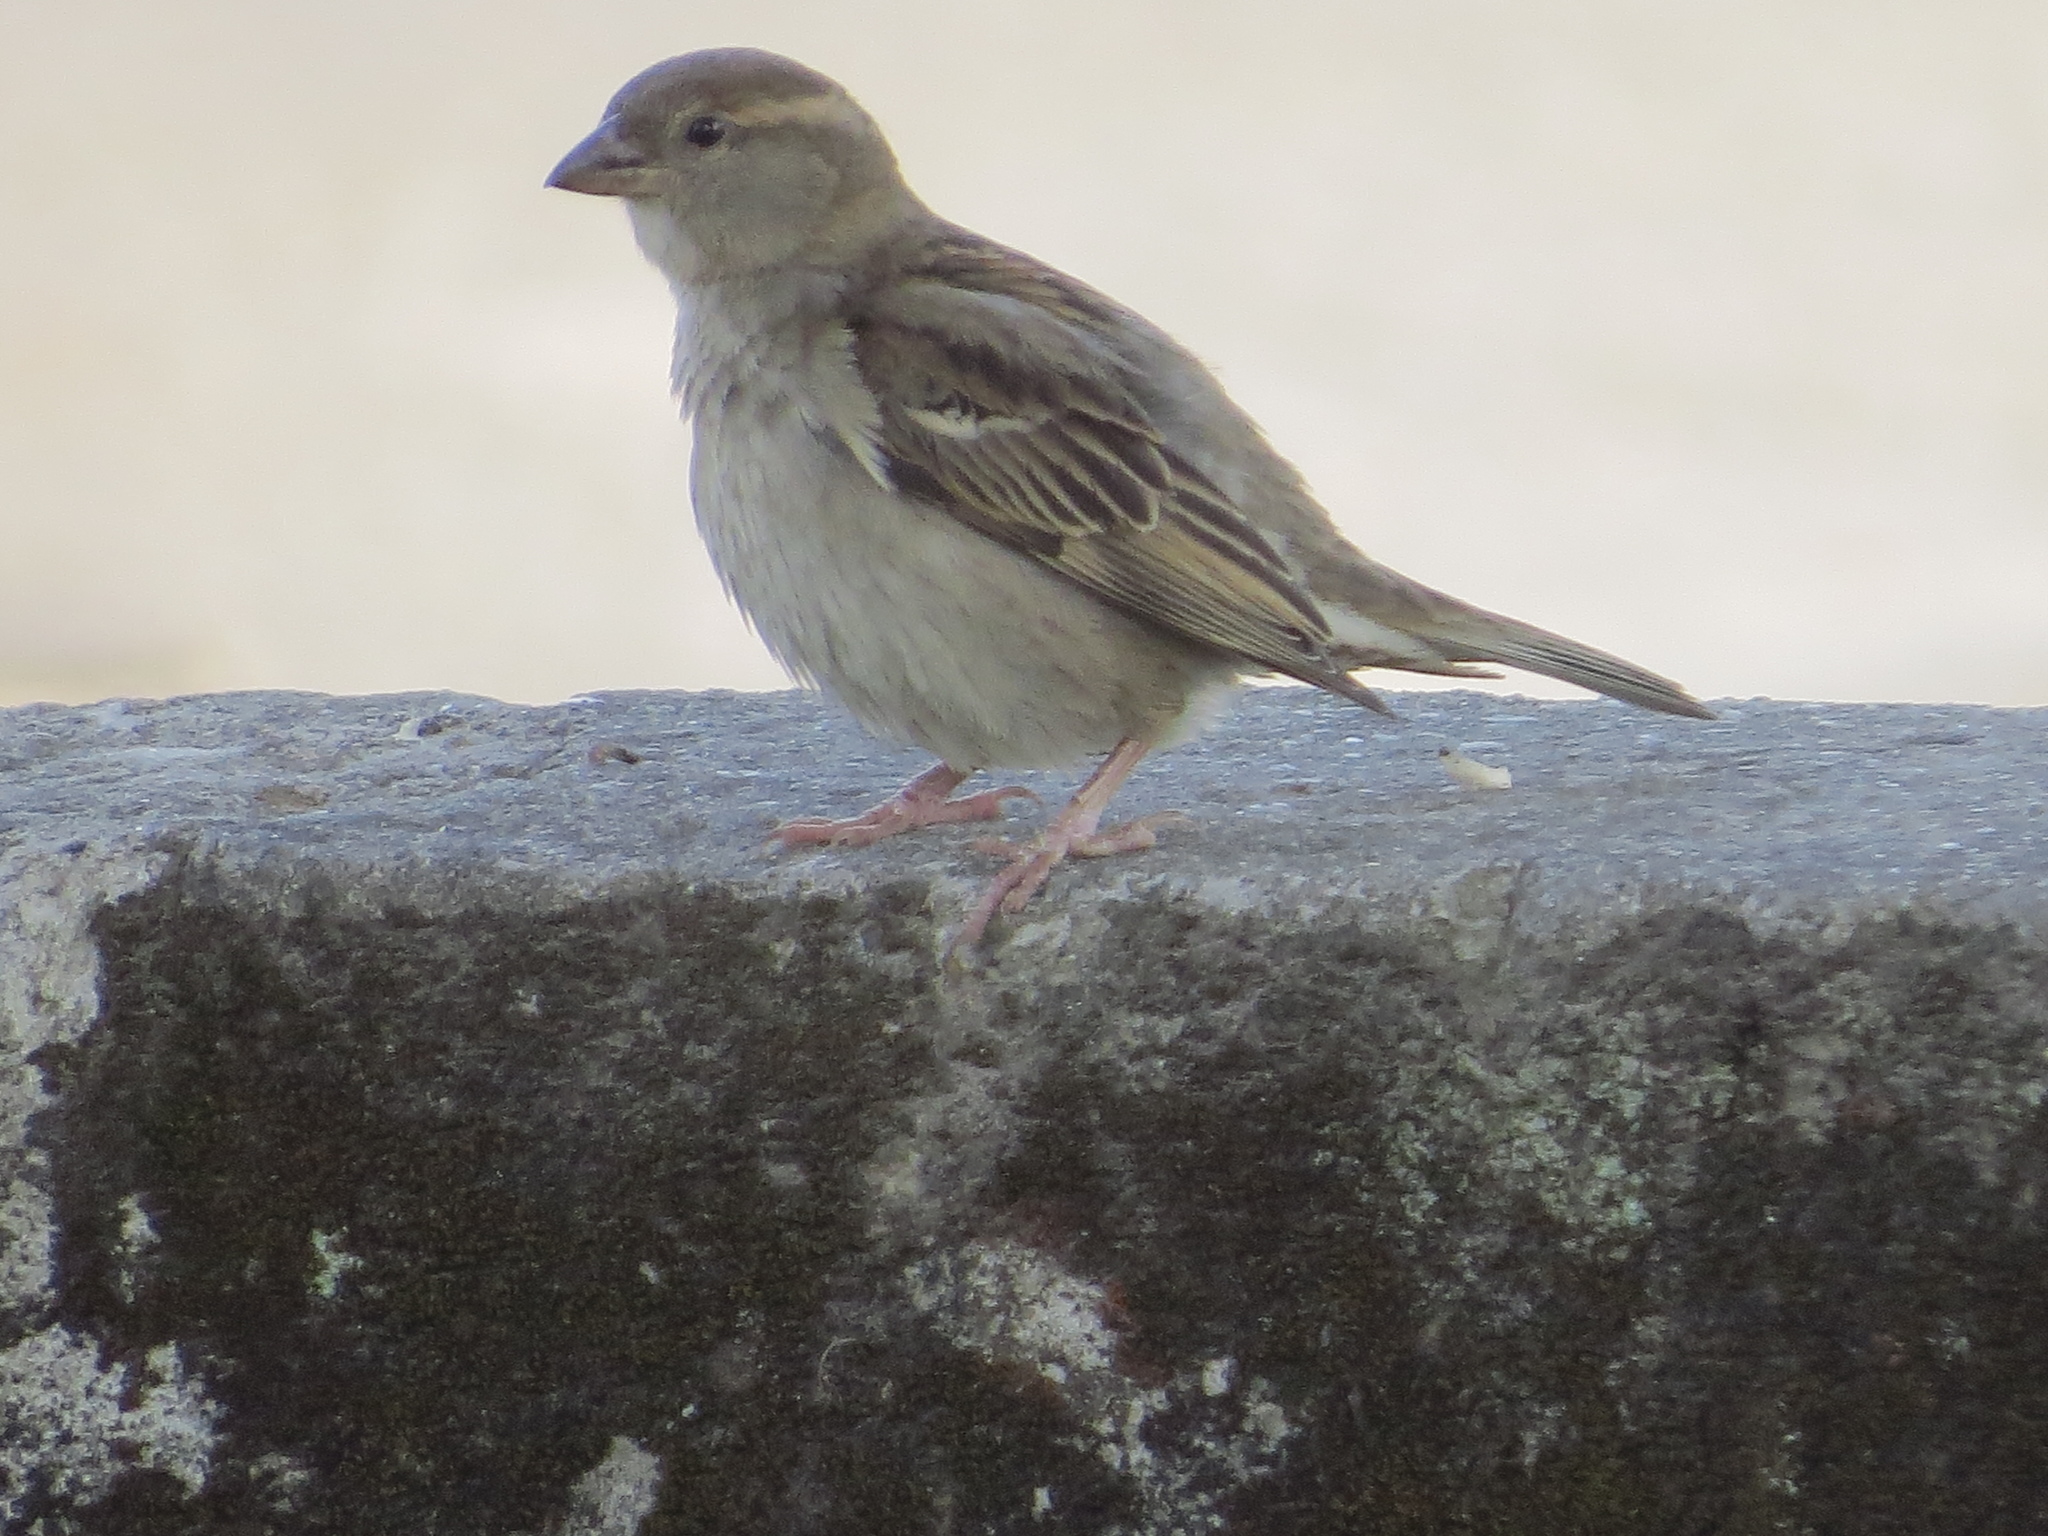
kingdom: Animalia
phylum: Chordata
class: Aves
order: Passeriformes
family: Passeridae
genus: Passer
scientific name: Passer domesticus
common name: House sparrow
